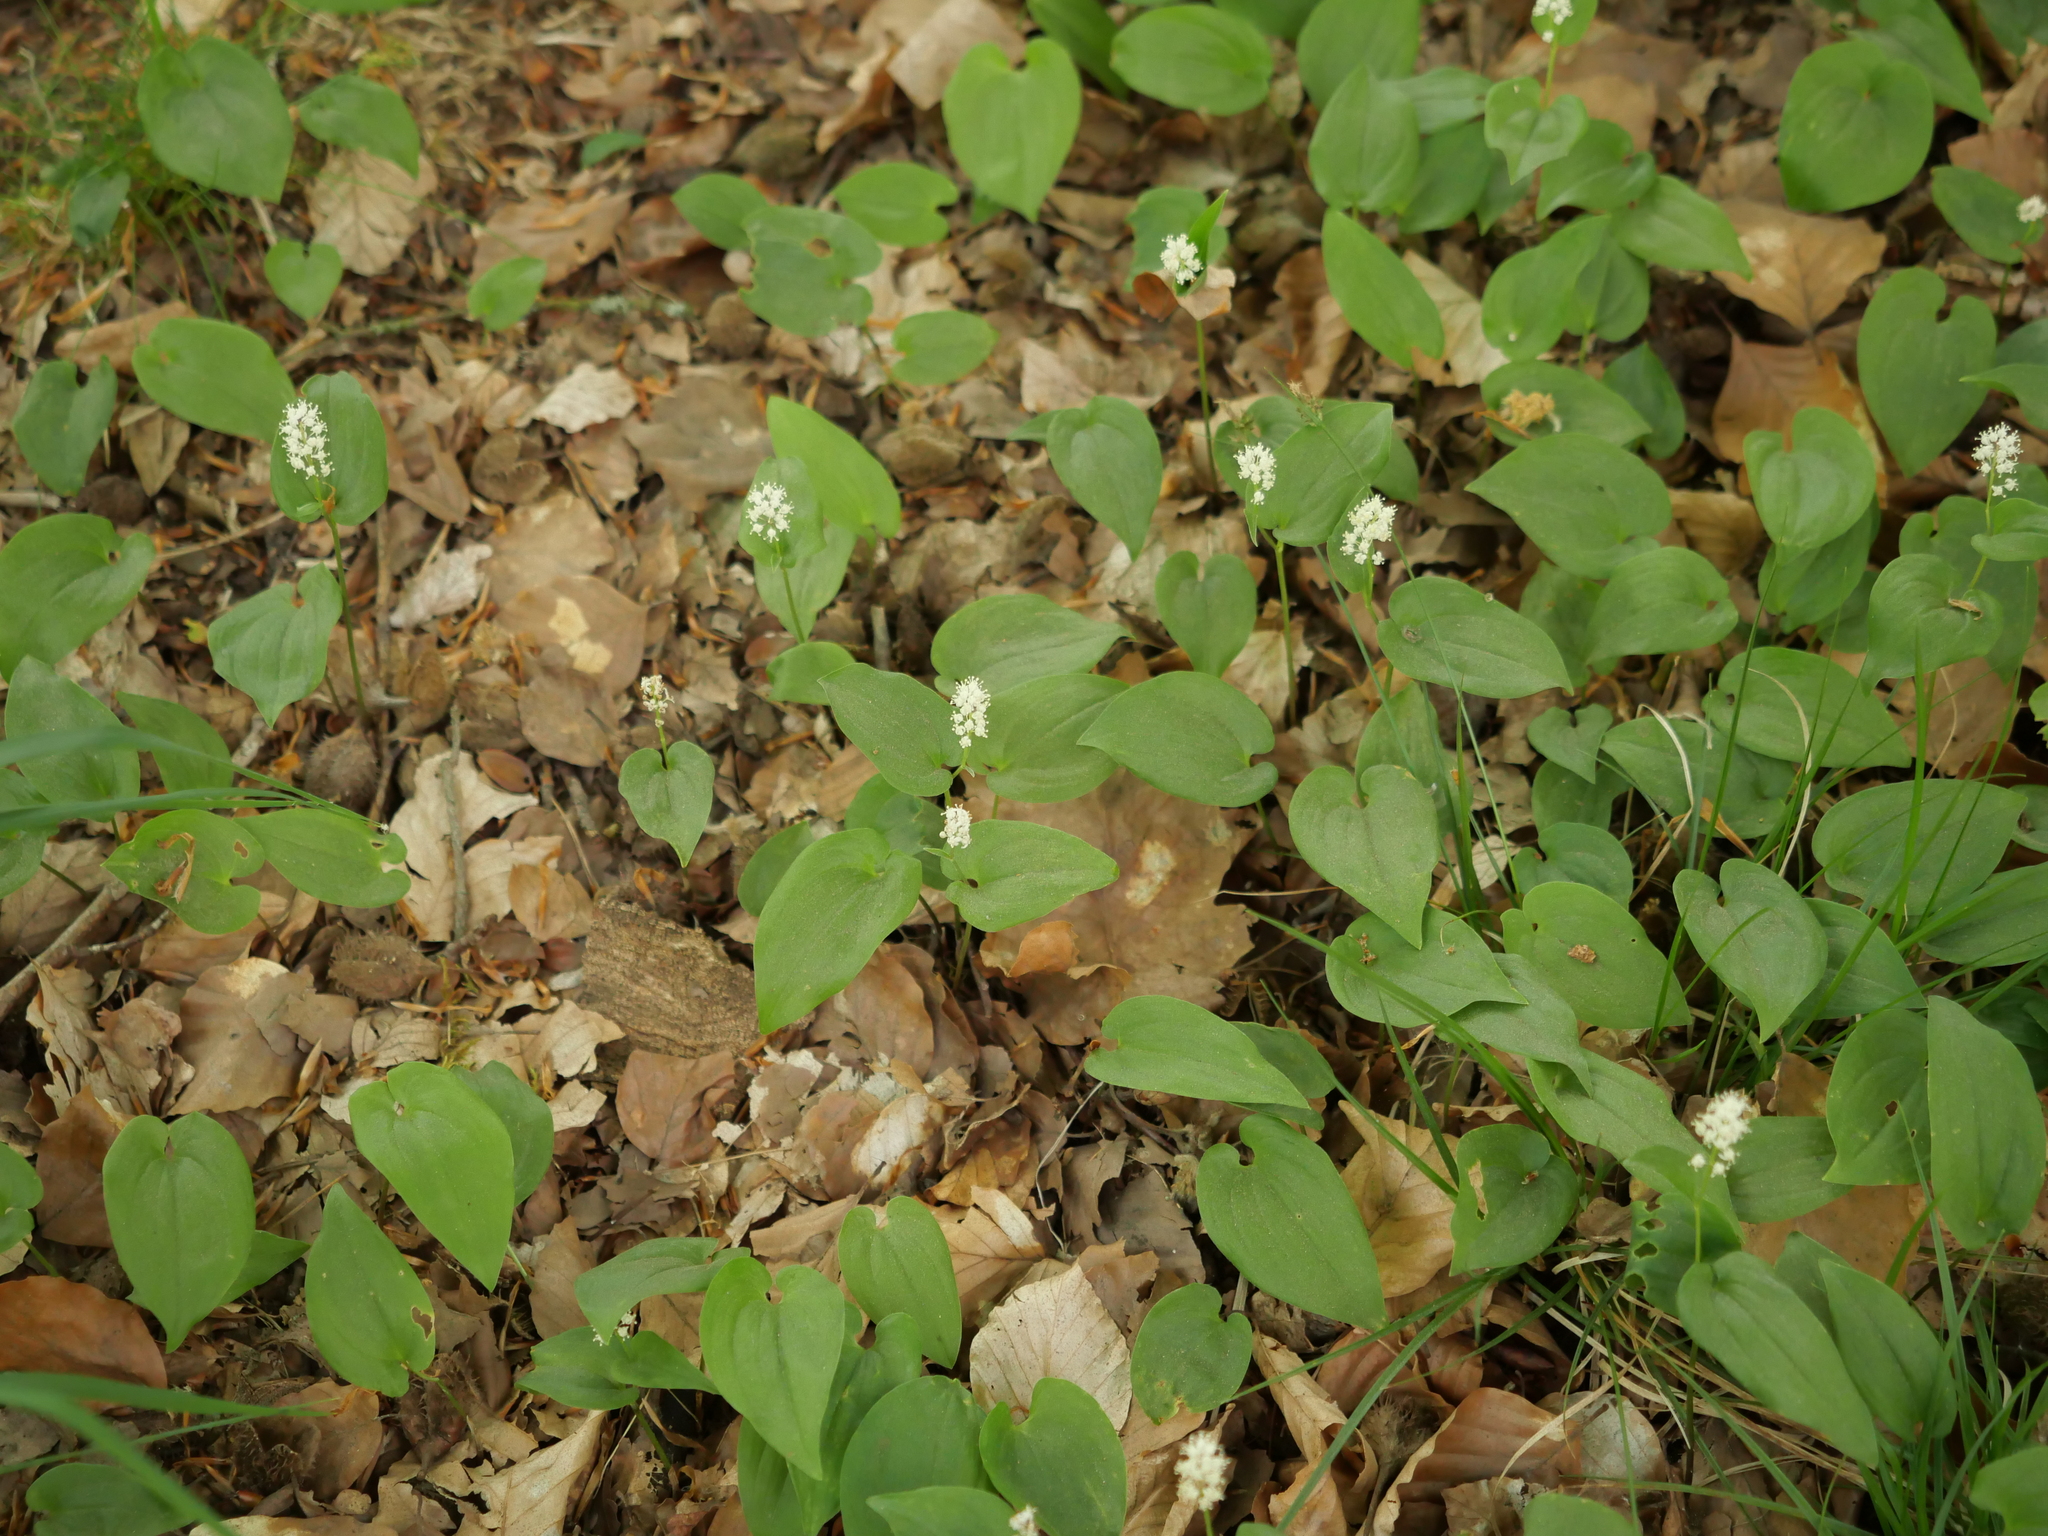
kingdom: Plantae
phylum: Tracheophyta
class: Liliopsida
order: Asparagales
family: Asparagaceae
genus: Maianthemum
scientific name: Maianthemum bifolium
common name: May lily
